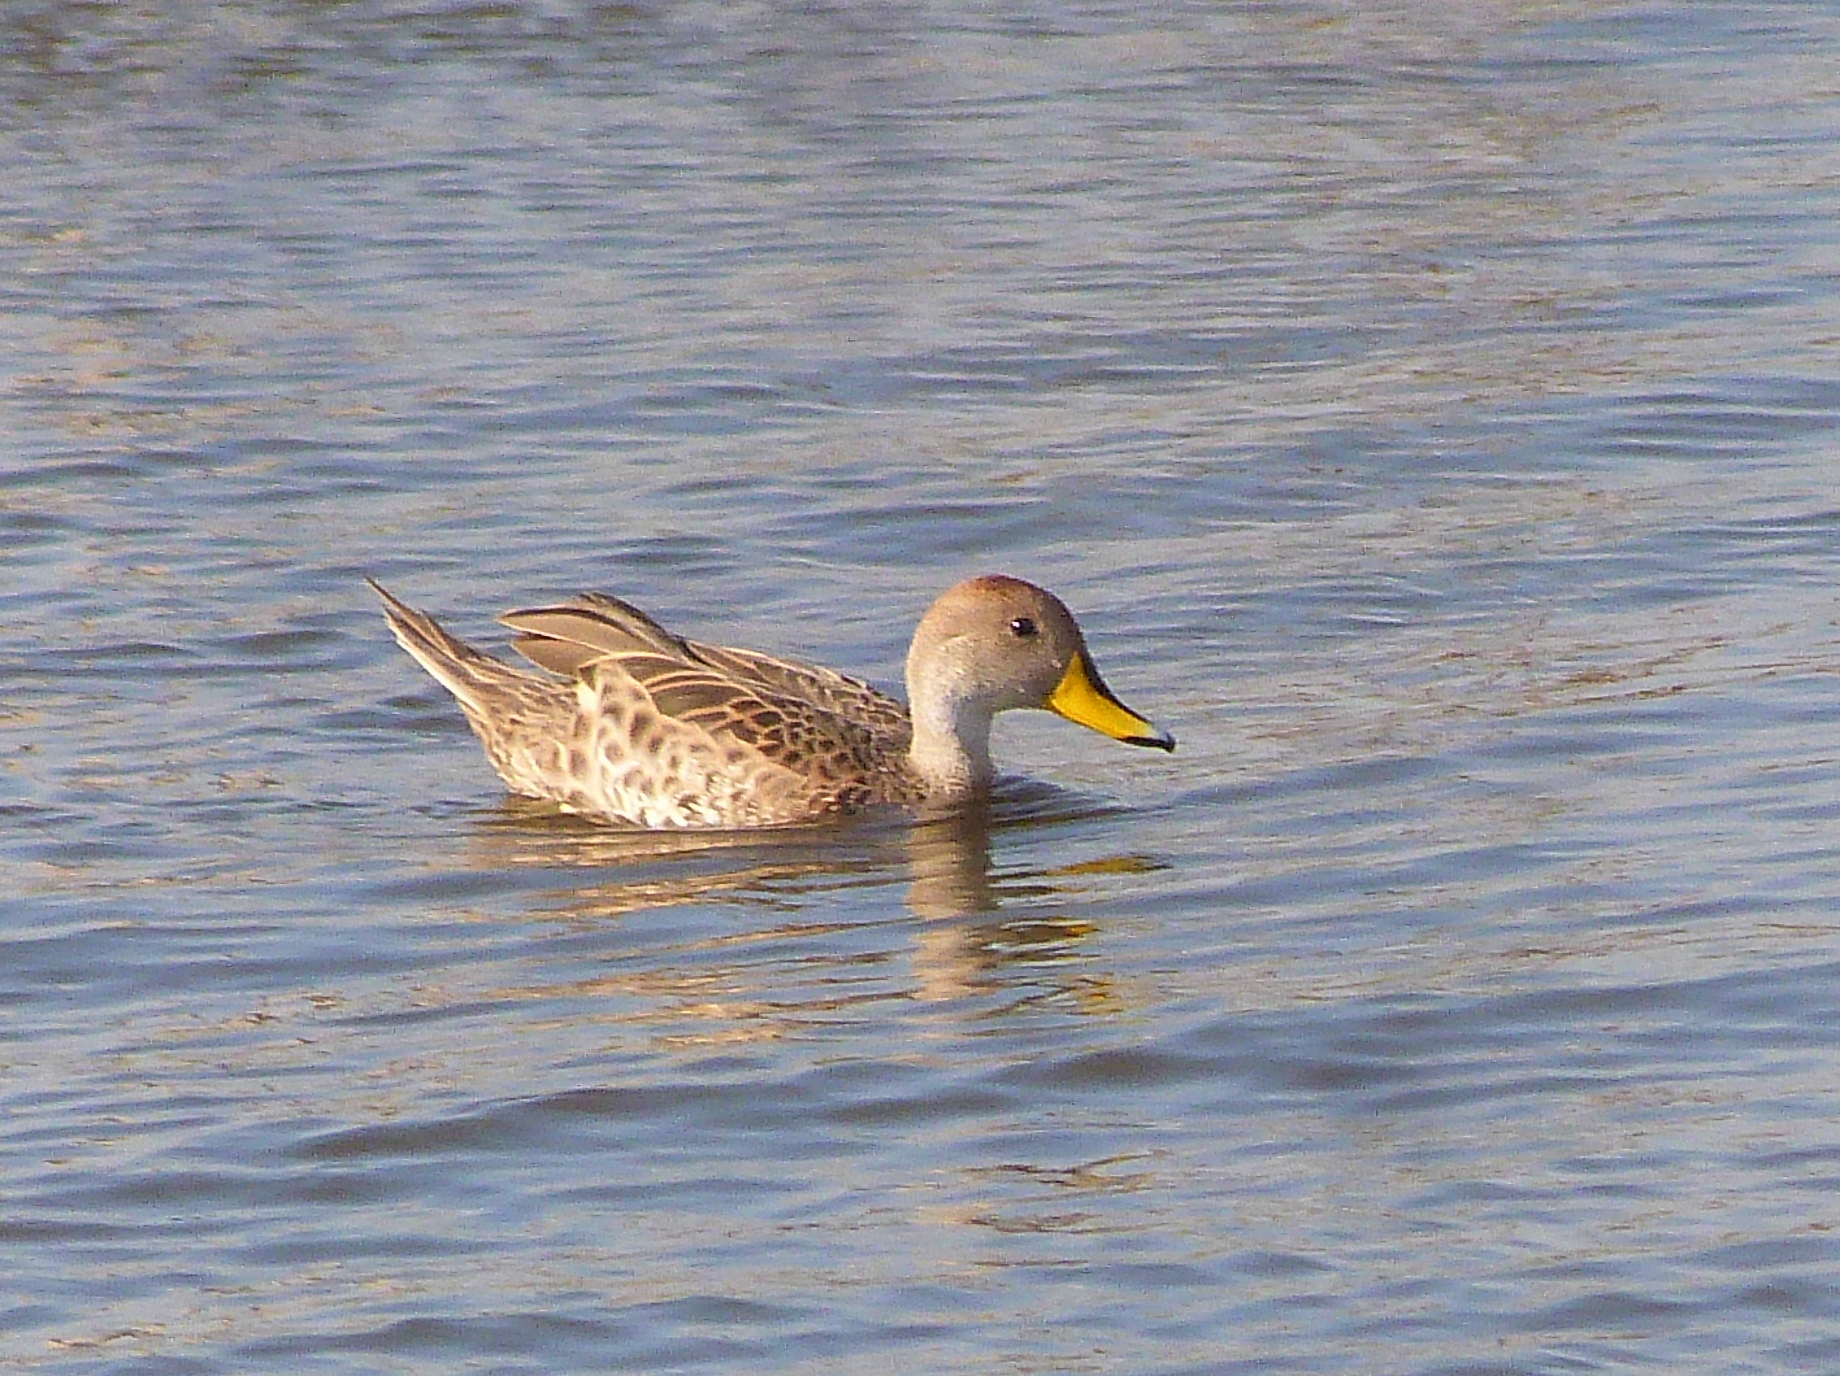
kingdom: Animalia
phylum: Chordata
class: Aves
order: Anseriformes
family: Anatidae
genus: Anas
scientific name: Anas georgica
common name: Yellow-billed pintail
